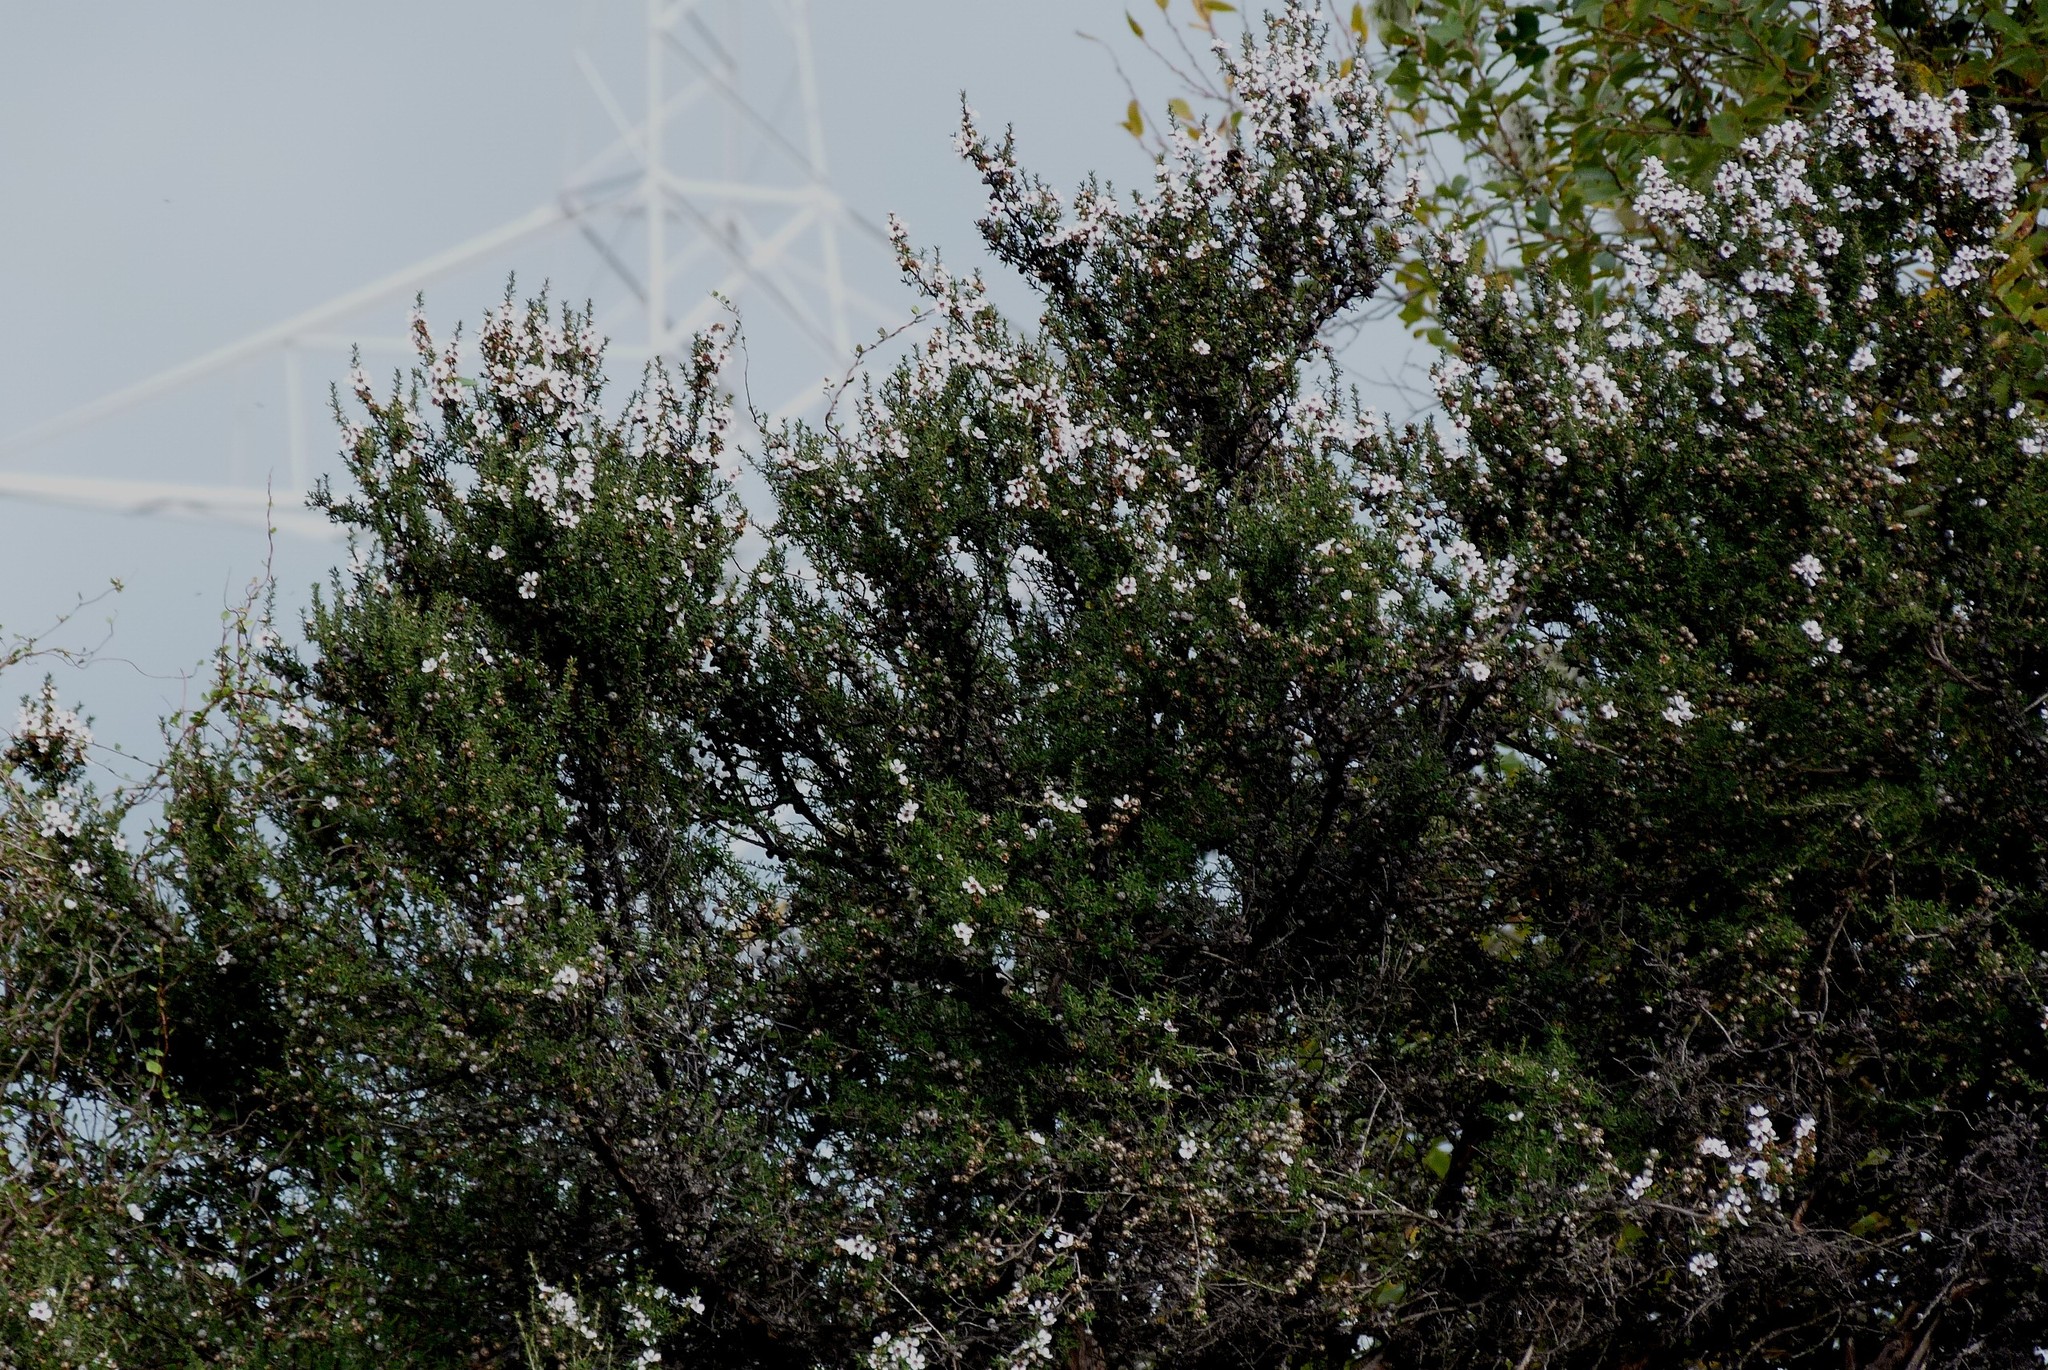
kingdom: Plantae
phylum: Tracheophyta
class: Magnoliopsida
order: Myrtales
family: Myrtaceae
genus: Leptospermum
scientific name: Leptospermum scoparium
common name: Broom tea-tree
